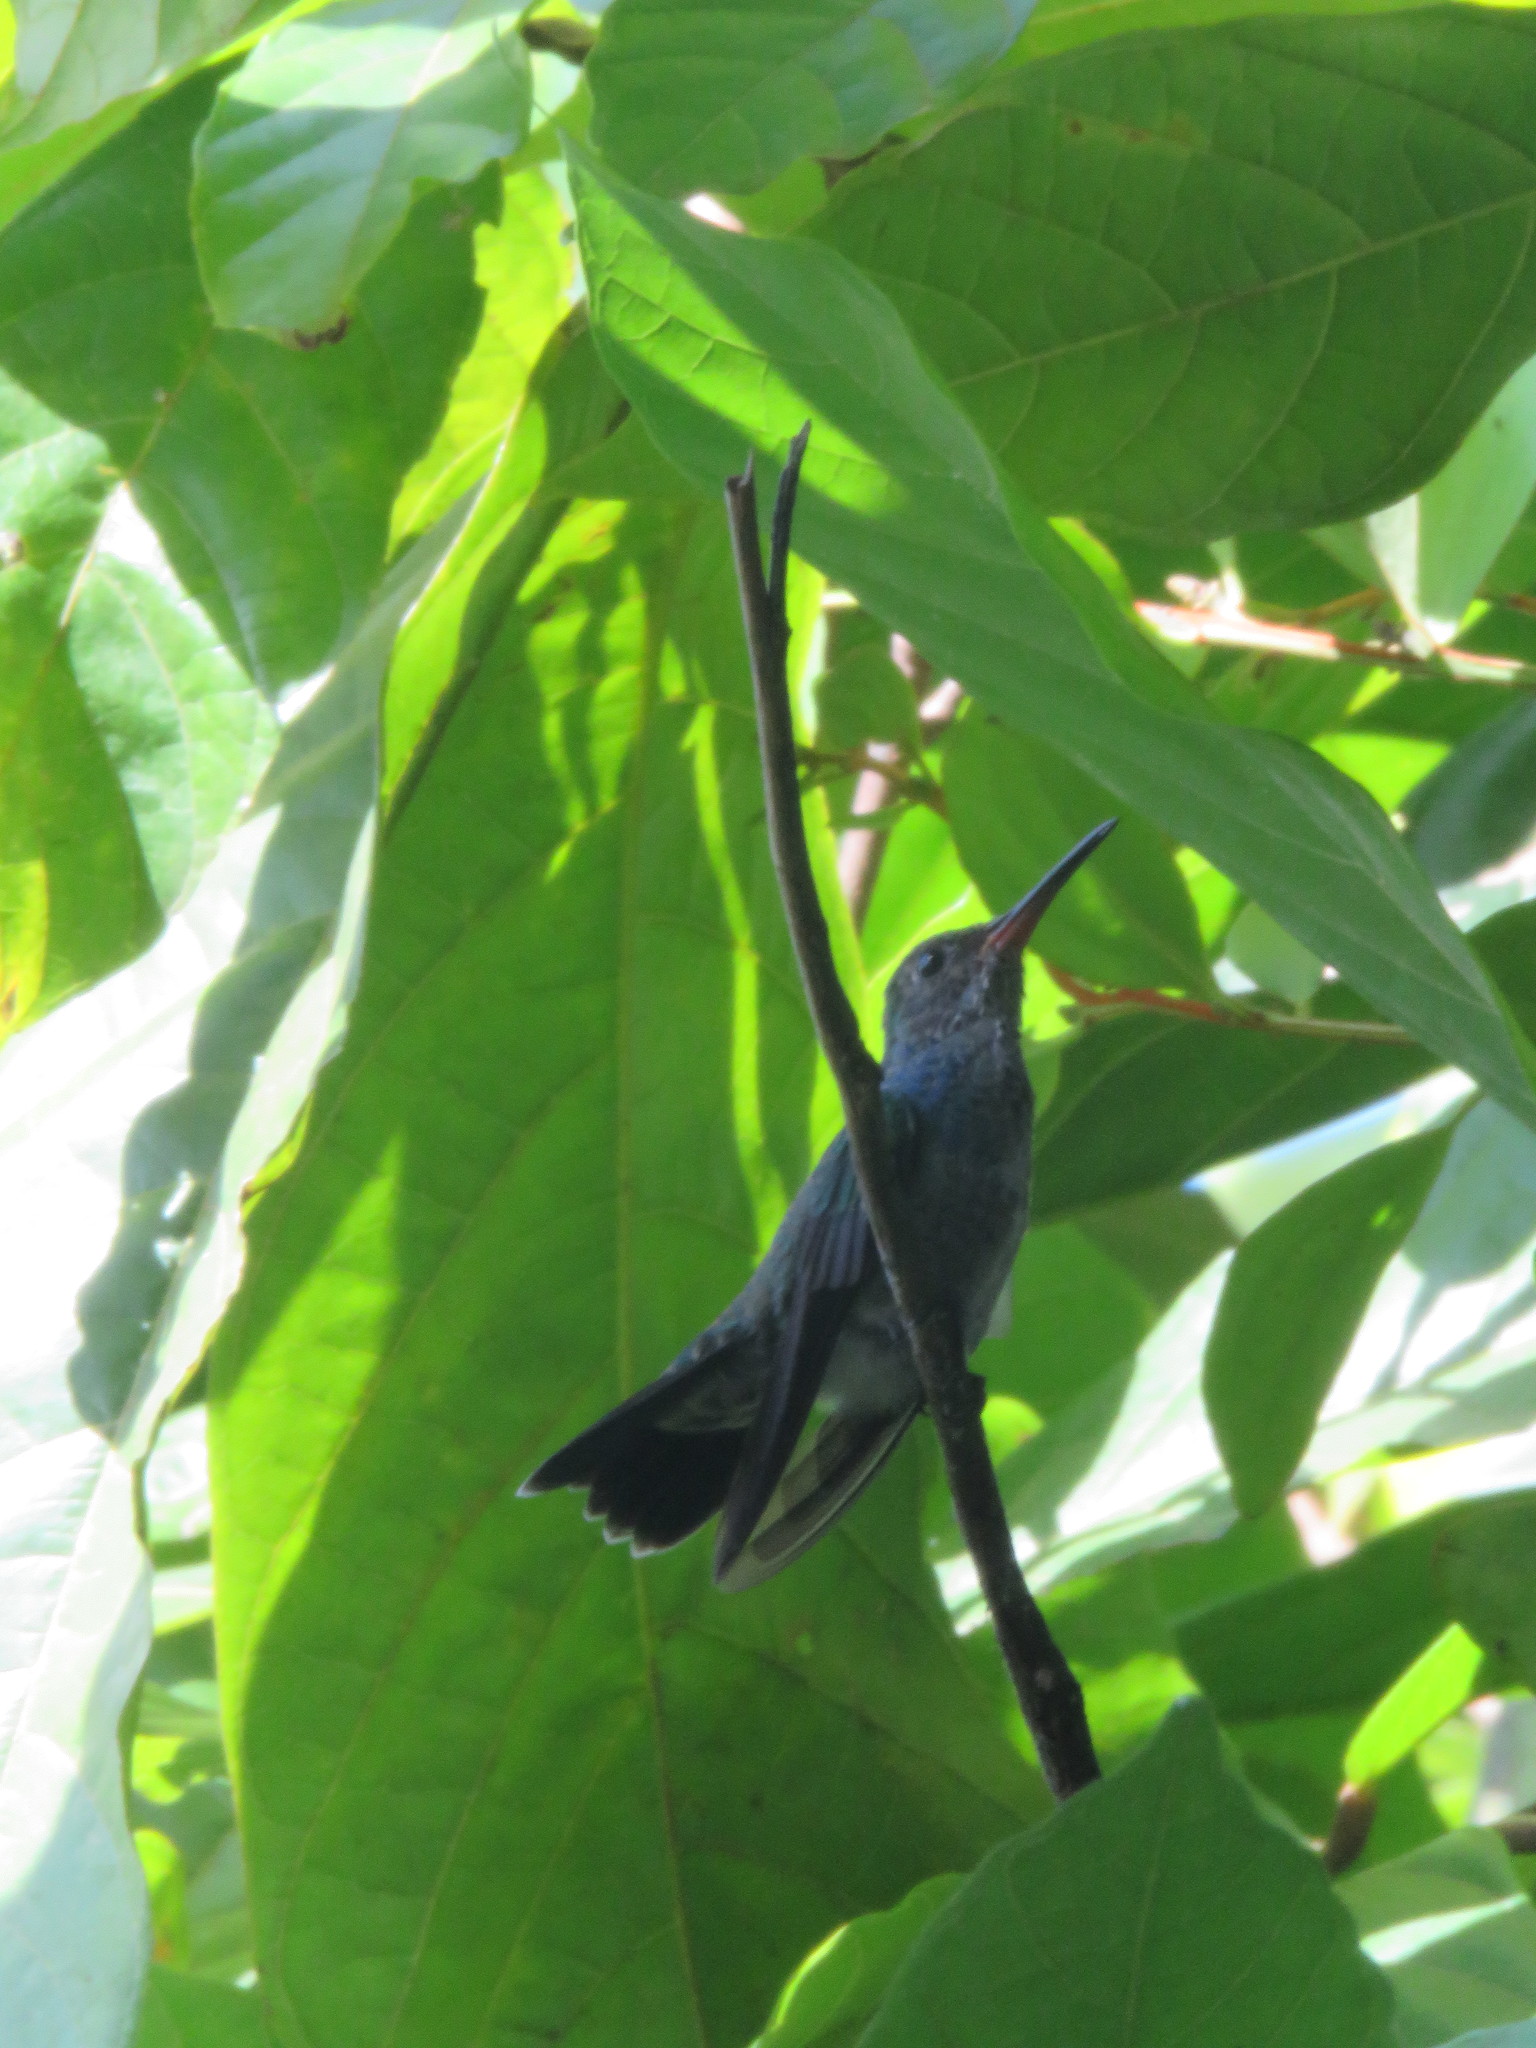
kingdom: Animalia
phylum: Chordata
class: Aves
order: Apodiformes
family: Trochilidae
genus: Chionomesa
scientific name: Chionomesa lactea
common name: Sapphire-spangled emerald
